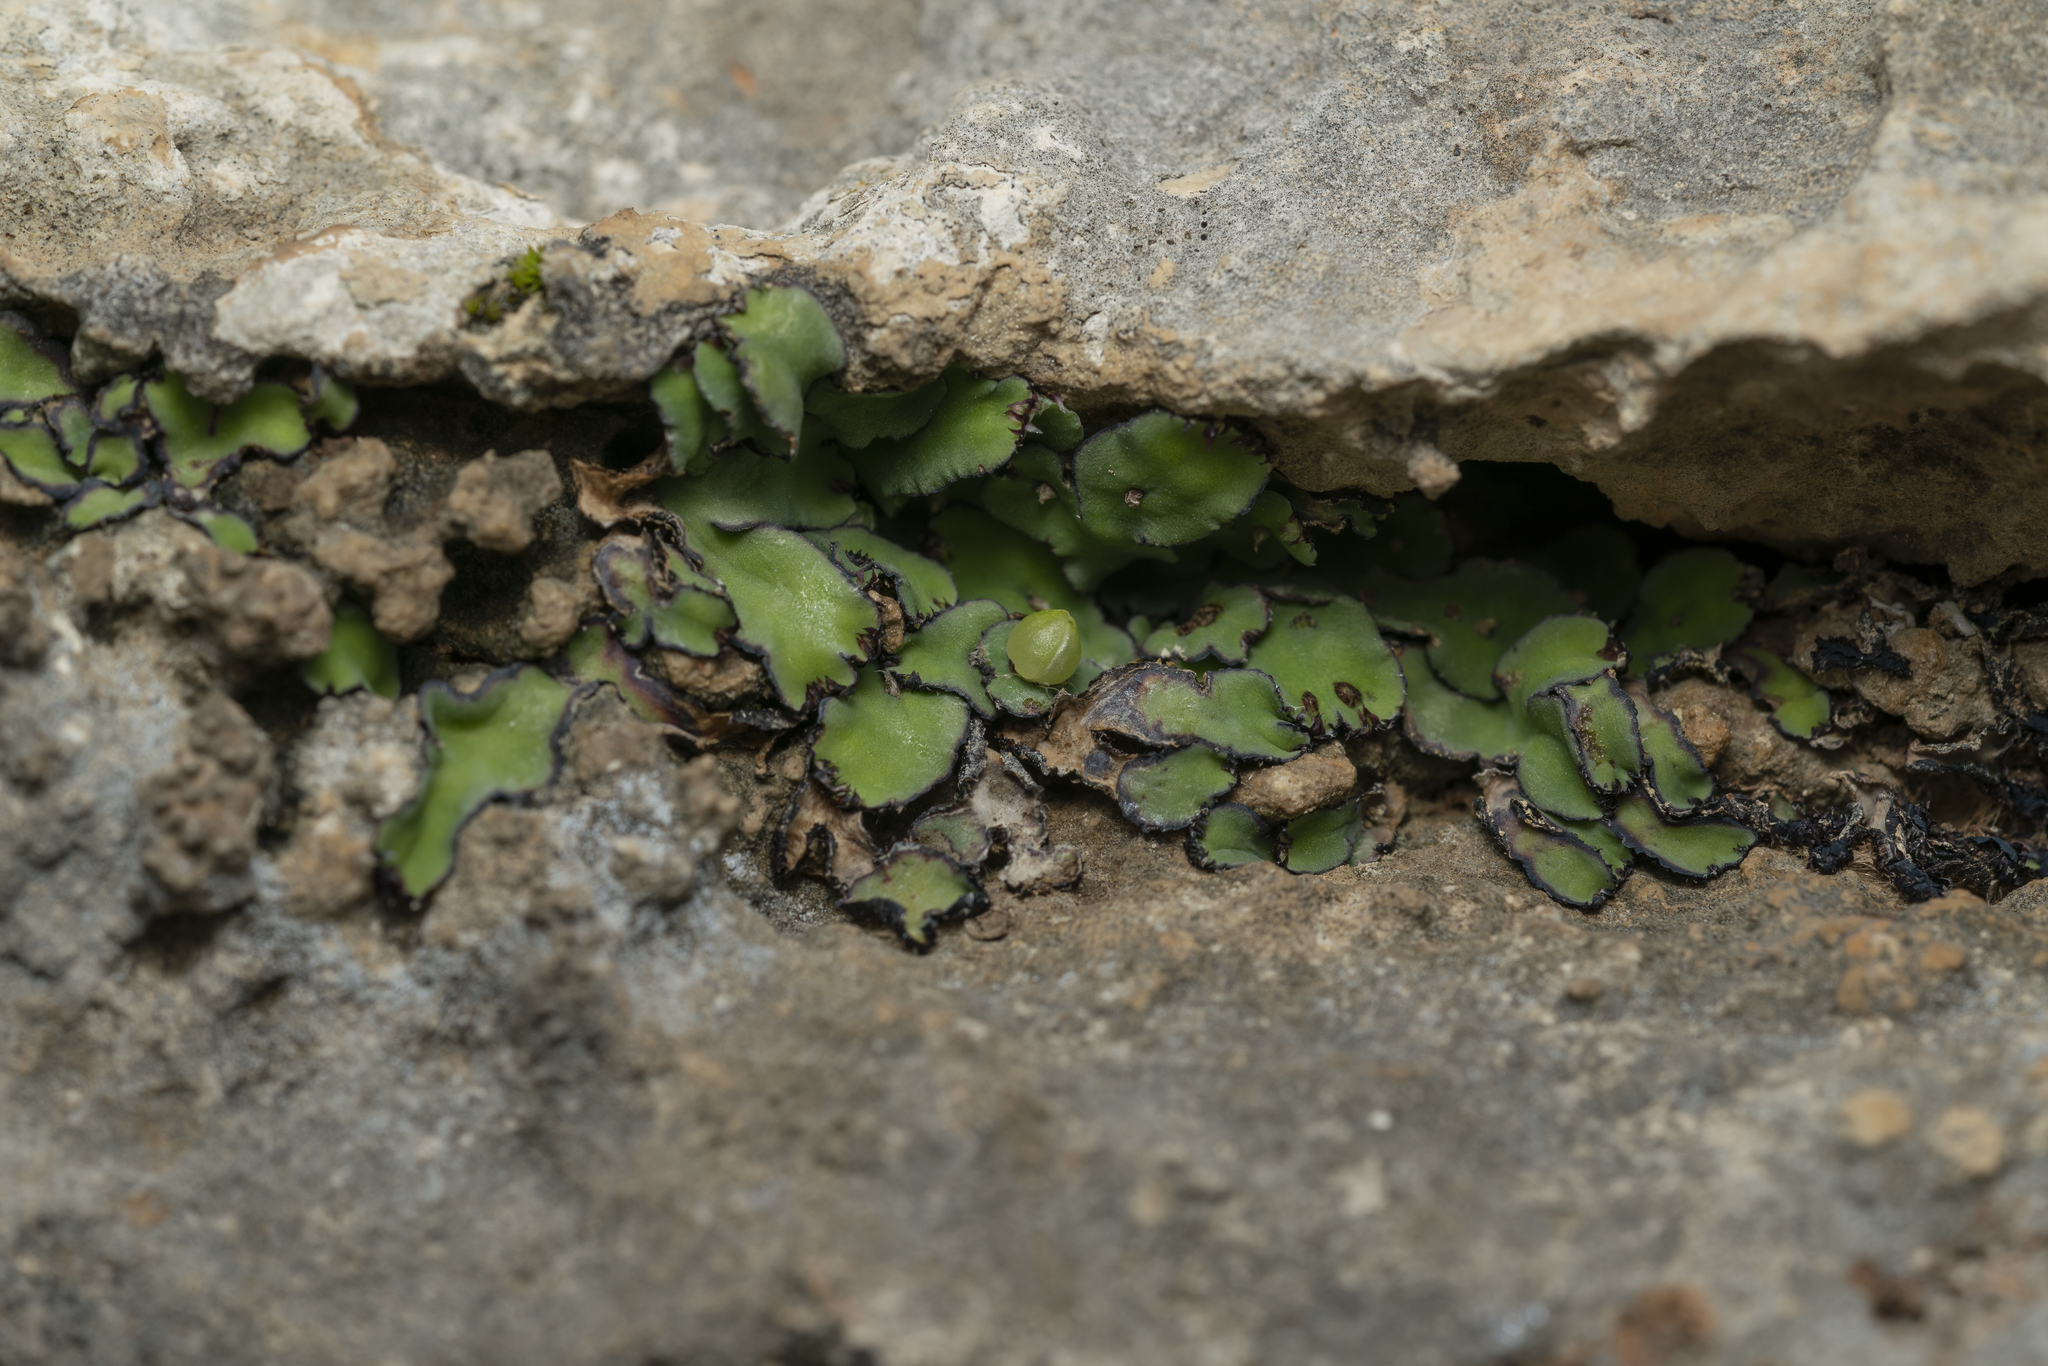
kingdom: Plantae
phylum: Marchantiophyta
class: Marchantiopsida
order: Marchantiales
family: Aytoniaceae
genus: Plagiochasma
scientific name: Plagiochasma rupestre
